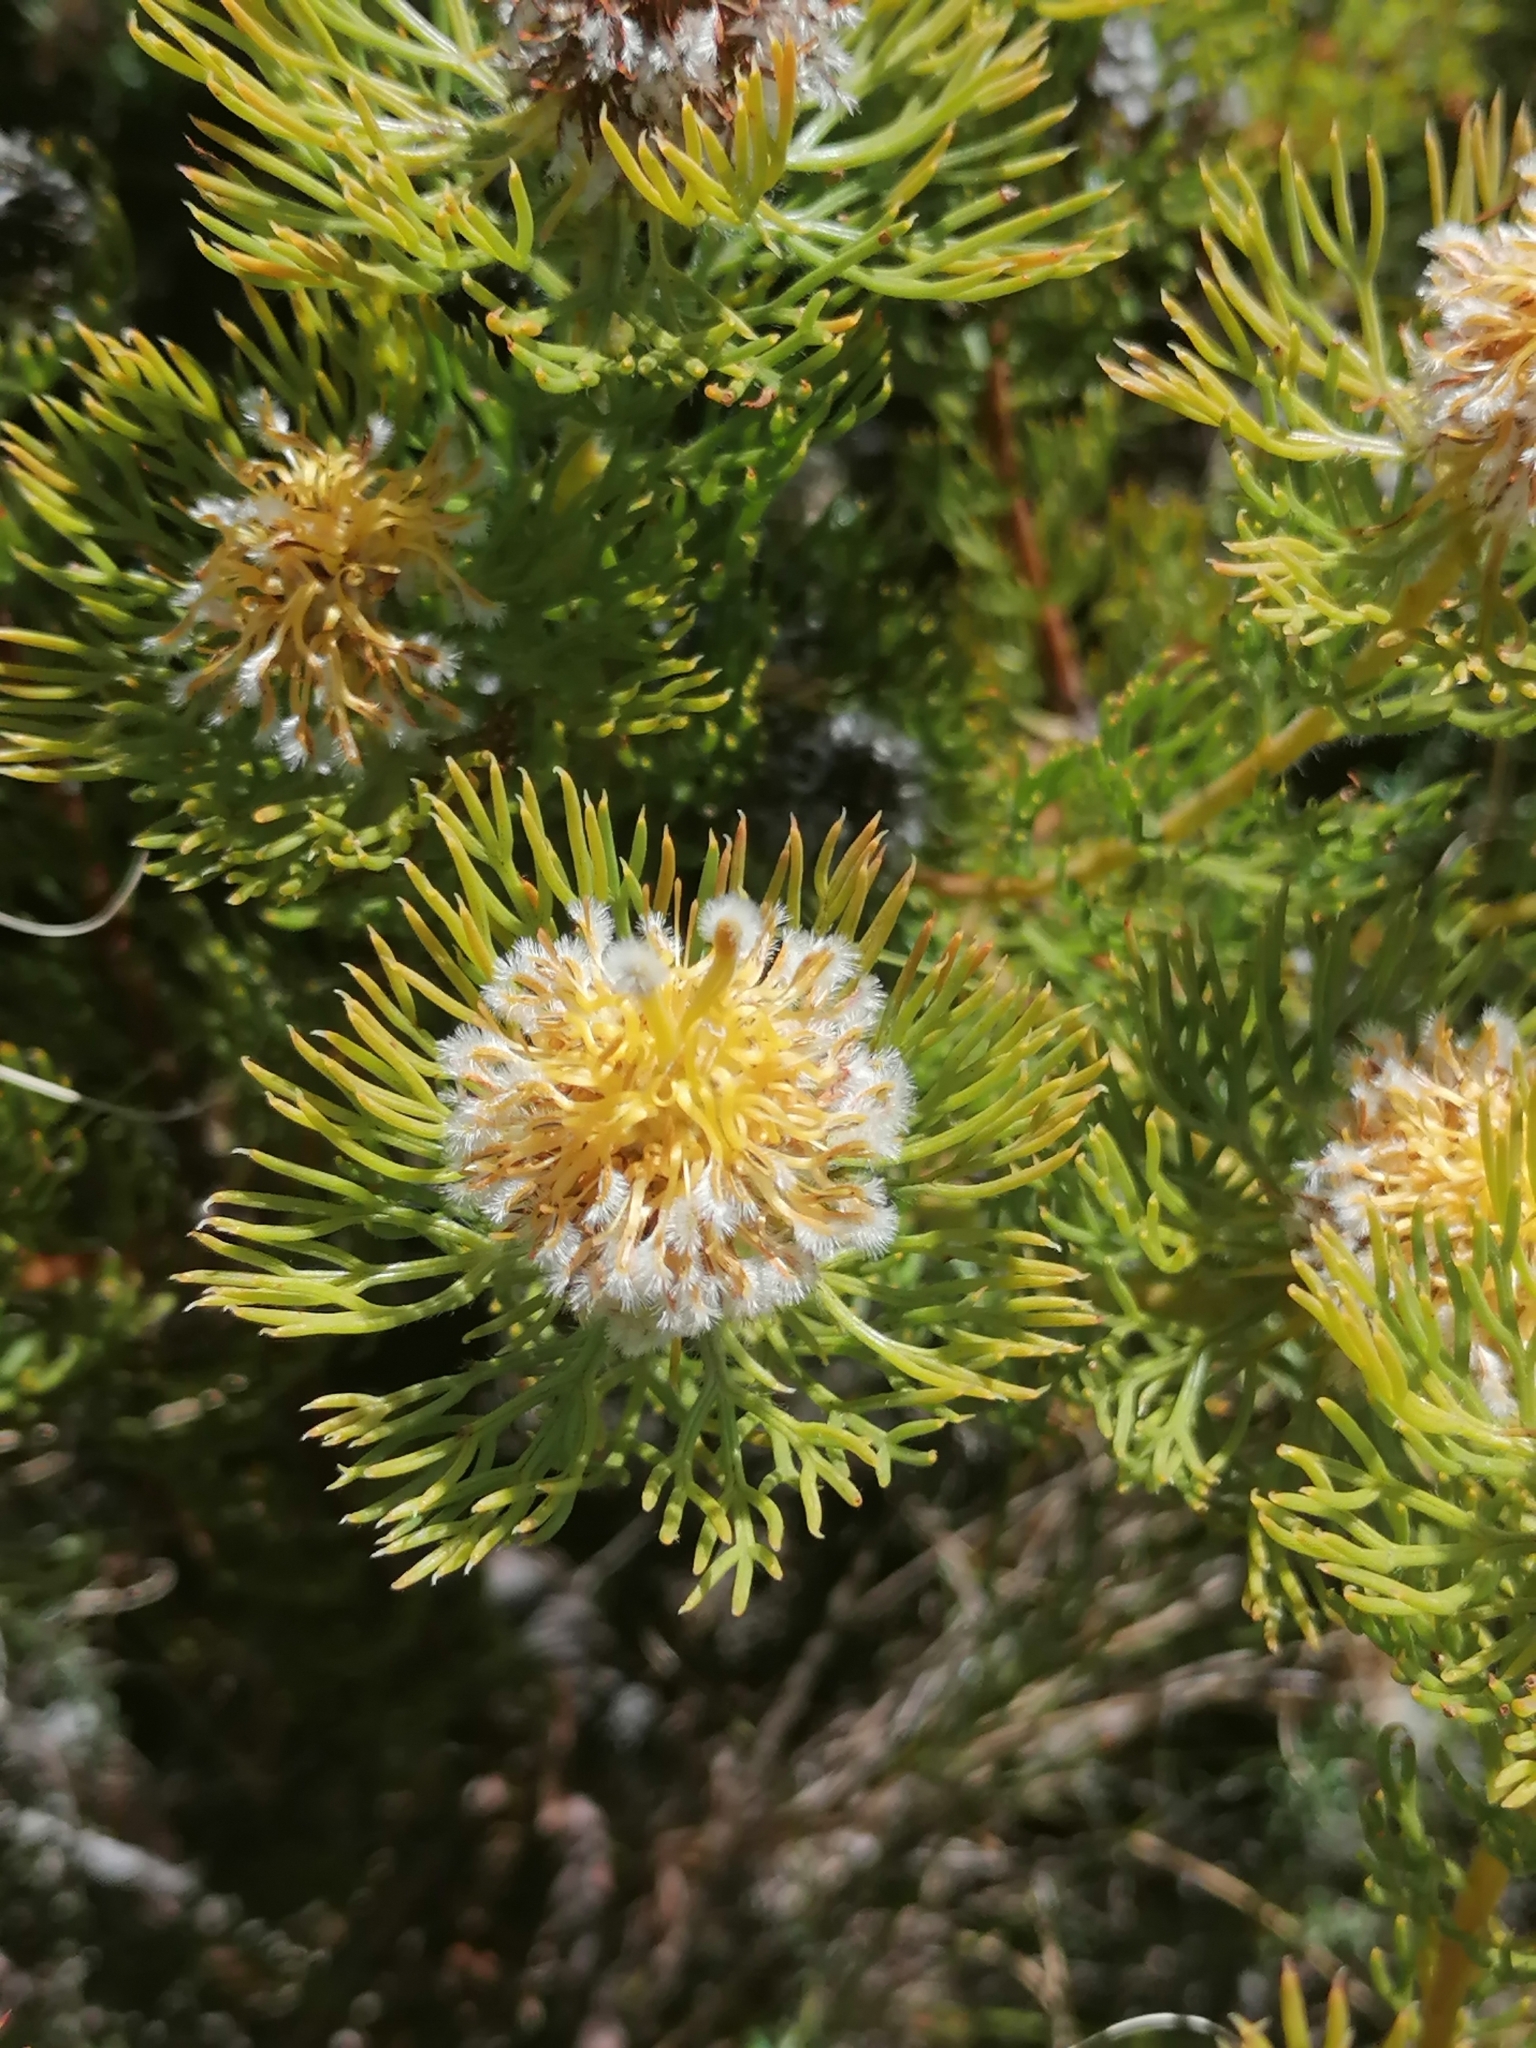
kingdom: Plantae
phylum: Tracheophyta
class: Magnoliopsida
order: Proteales
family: Proteaceae
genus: Serruria
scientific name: Serruria villosa
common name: Golden spiderhead
